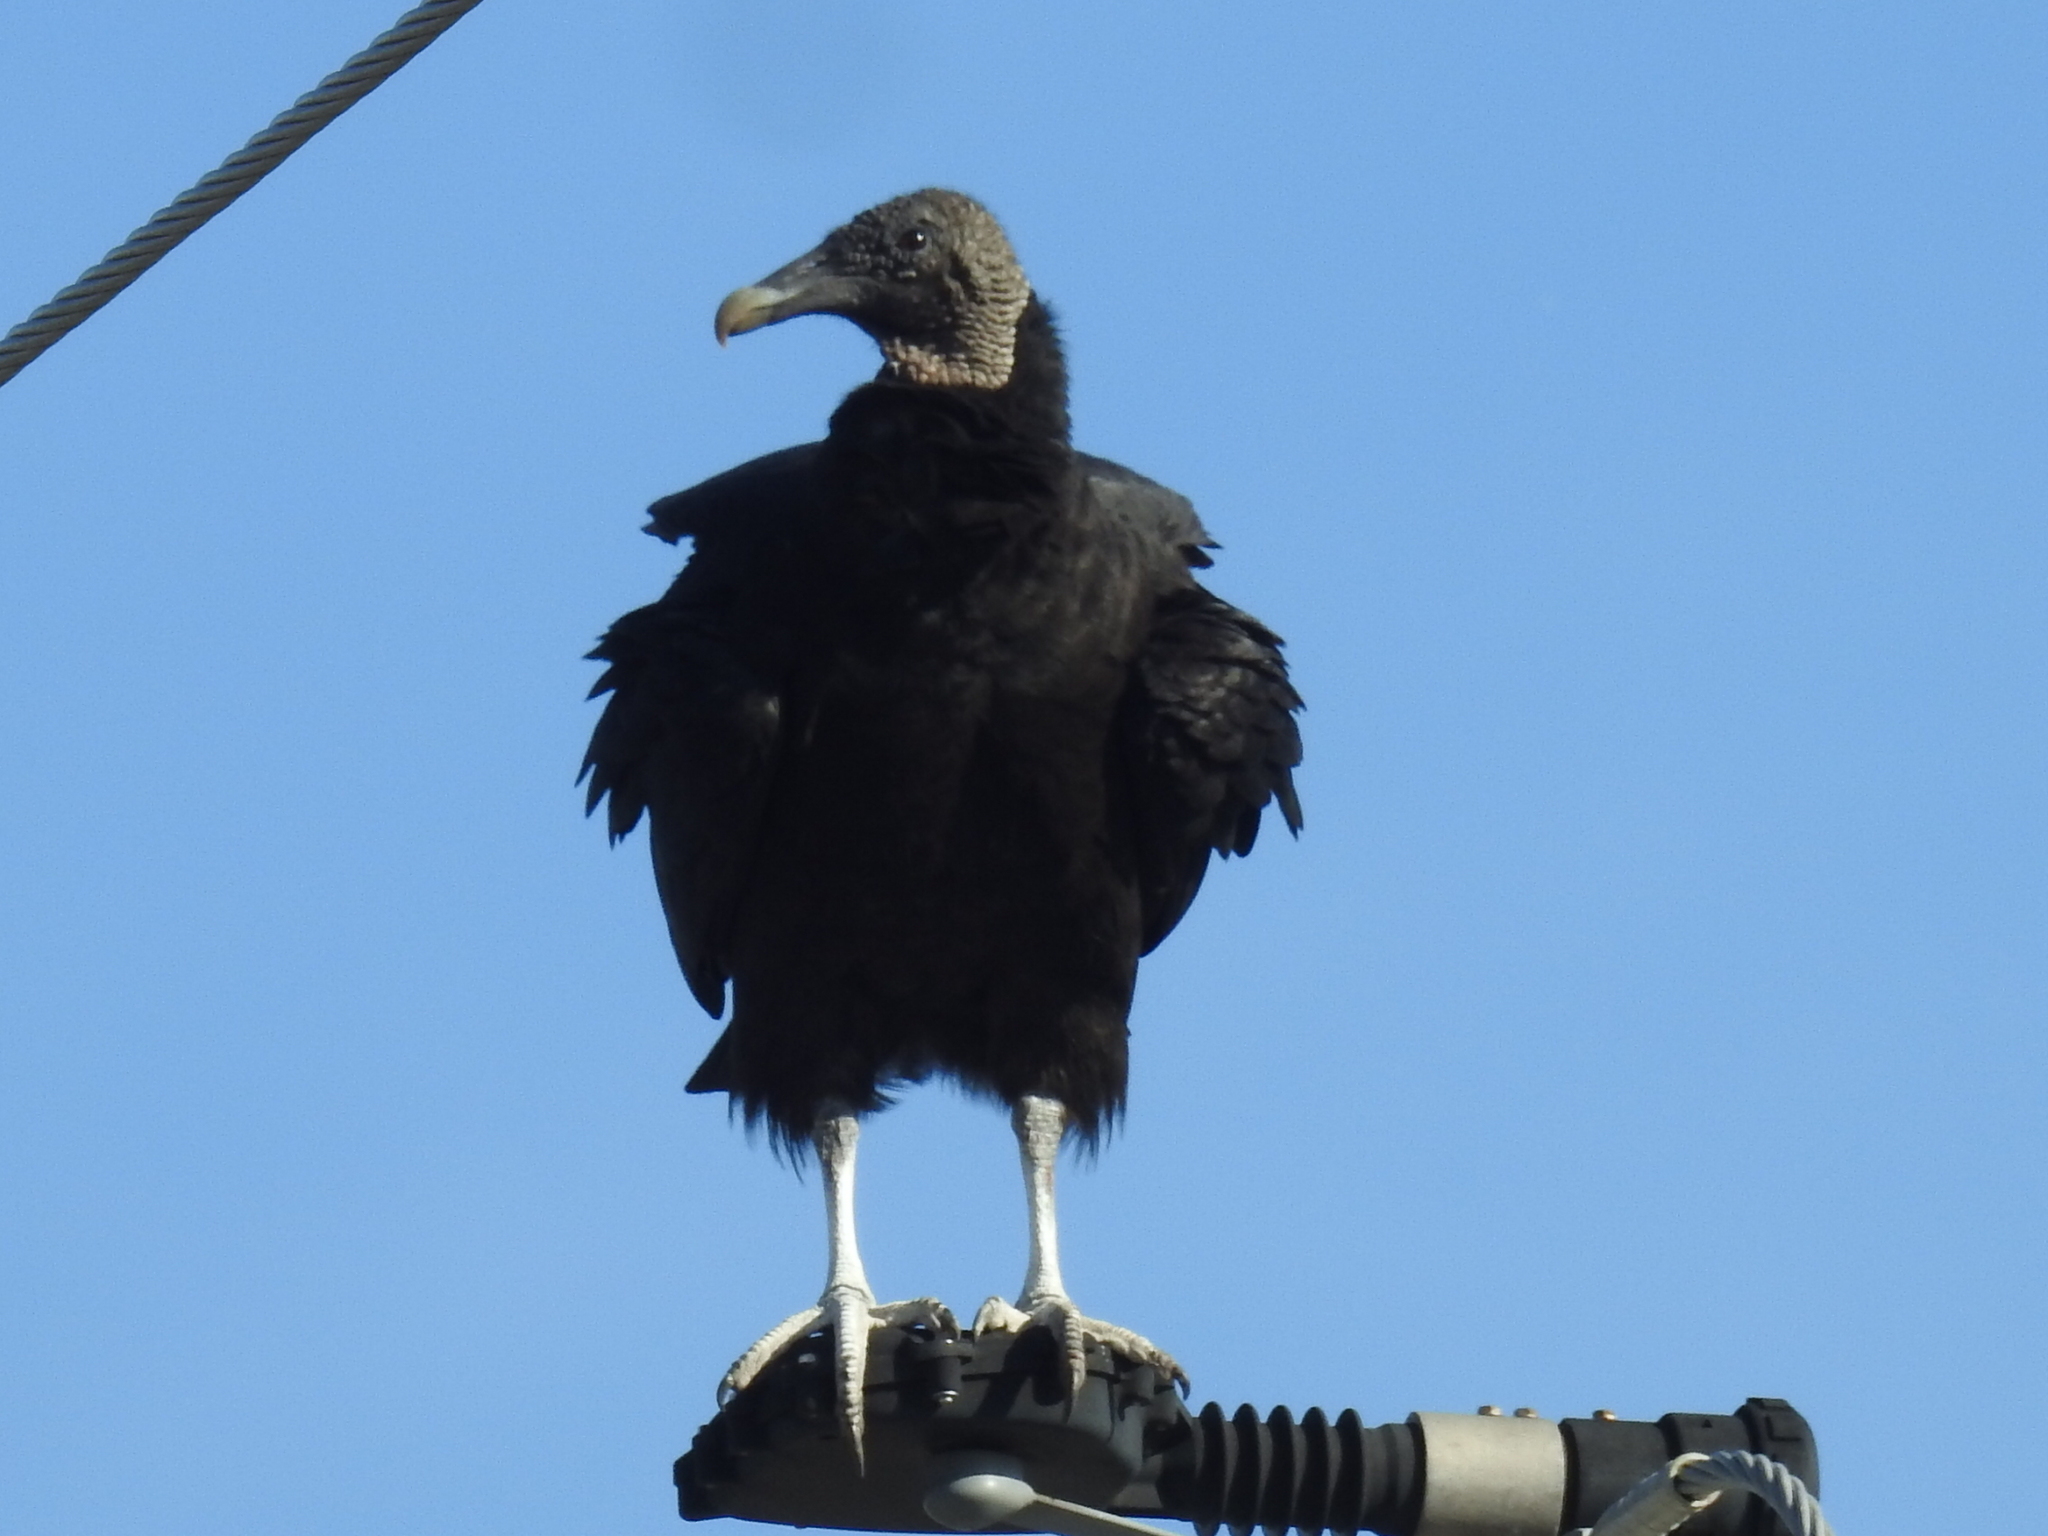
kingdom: Animalia
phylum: Chordata
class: Aves
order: Accipitriformes
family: Cathartidae
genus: Coragyps
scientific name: Coragyps atratus
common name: Black vulture
